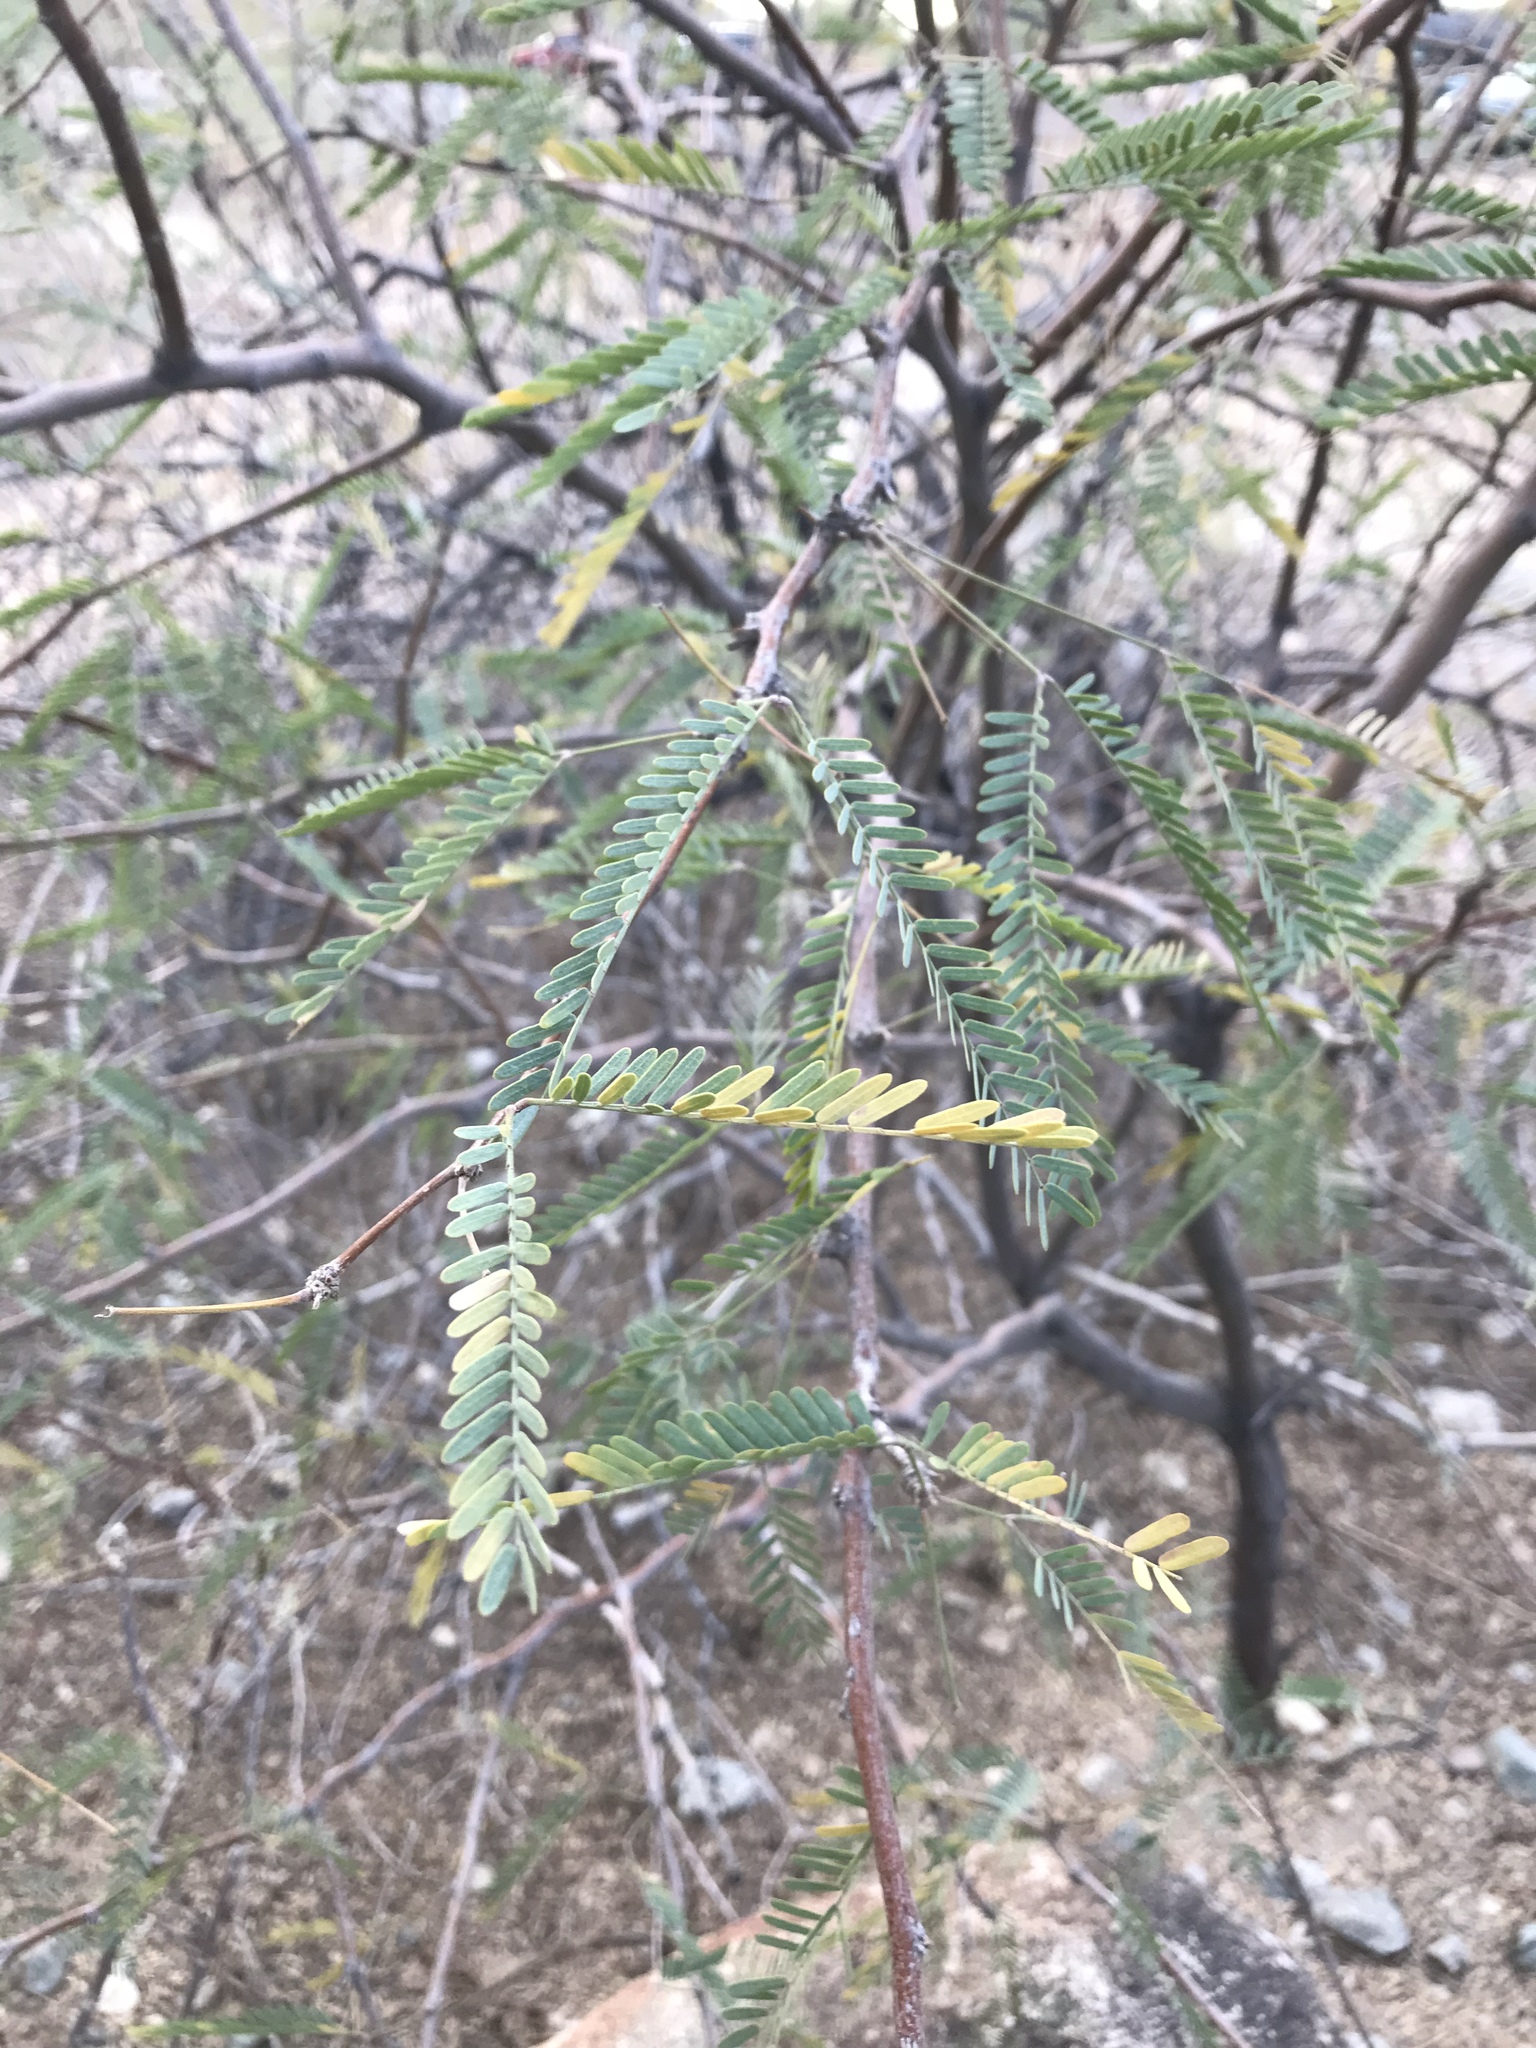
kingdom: Plantae
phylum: Tracheophyta
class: Magnoliopsida
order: Fabales
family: Fabaceae
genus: Prosopis
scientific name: Prosopis velutina
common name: Velvet mesquite
